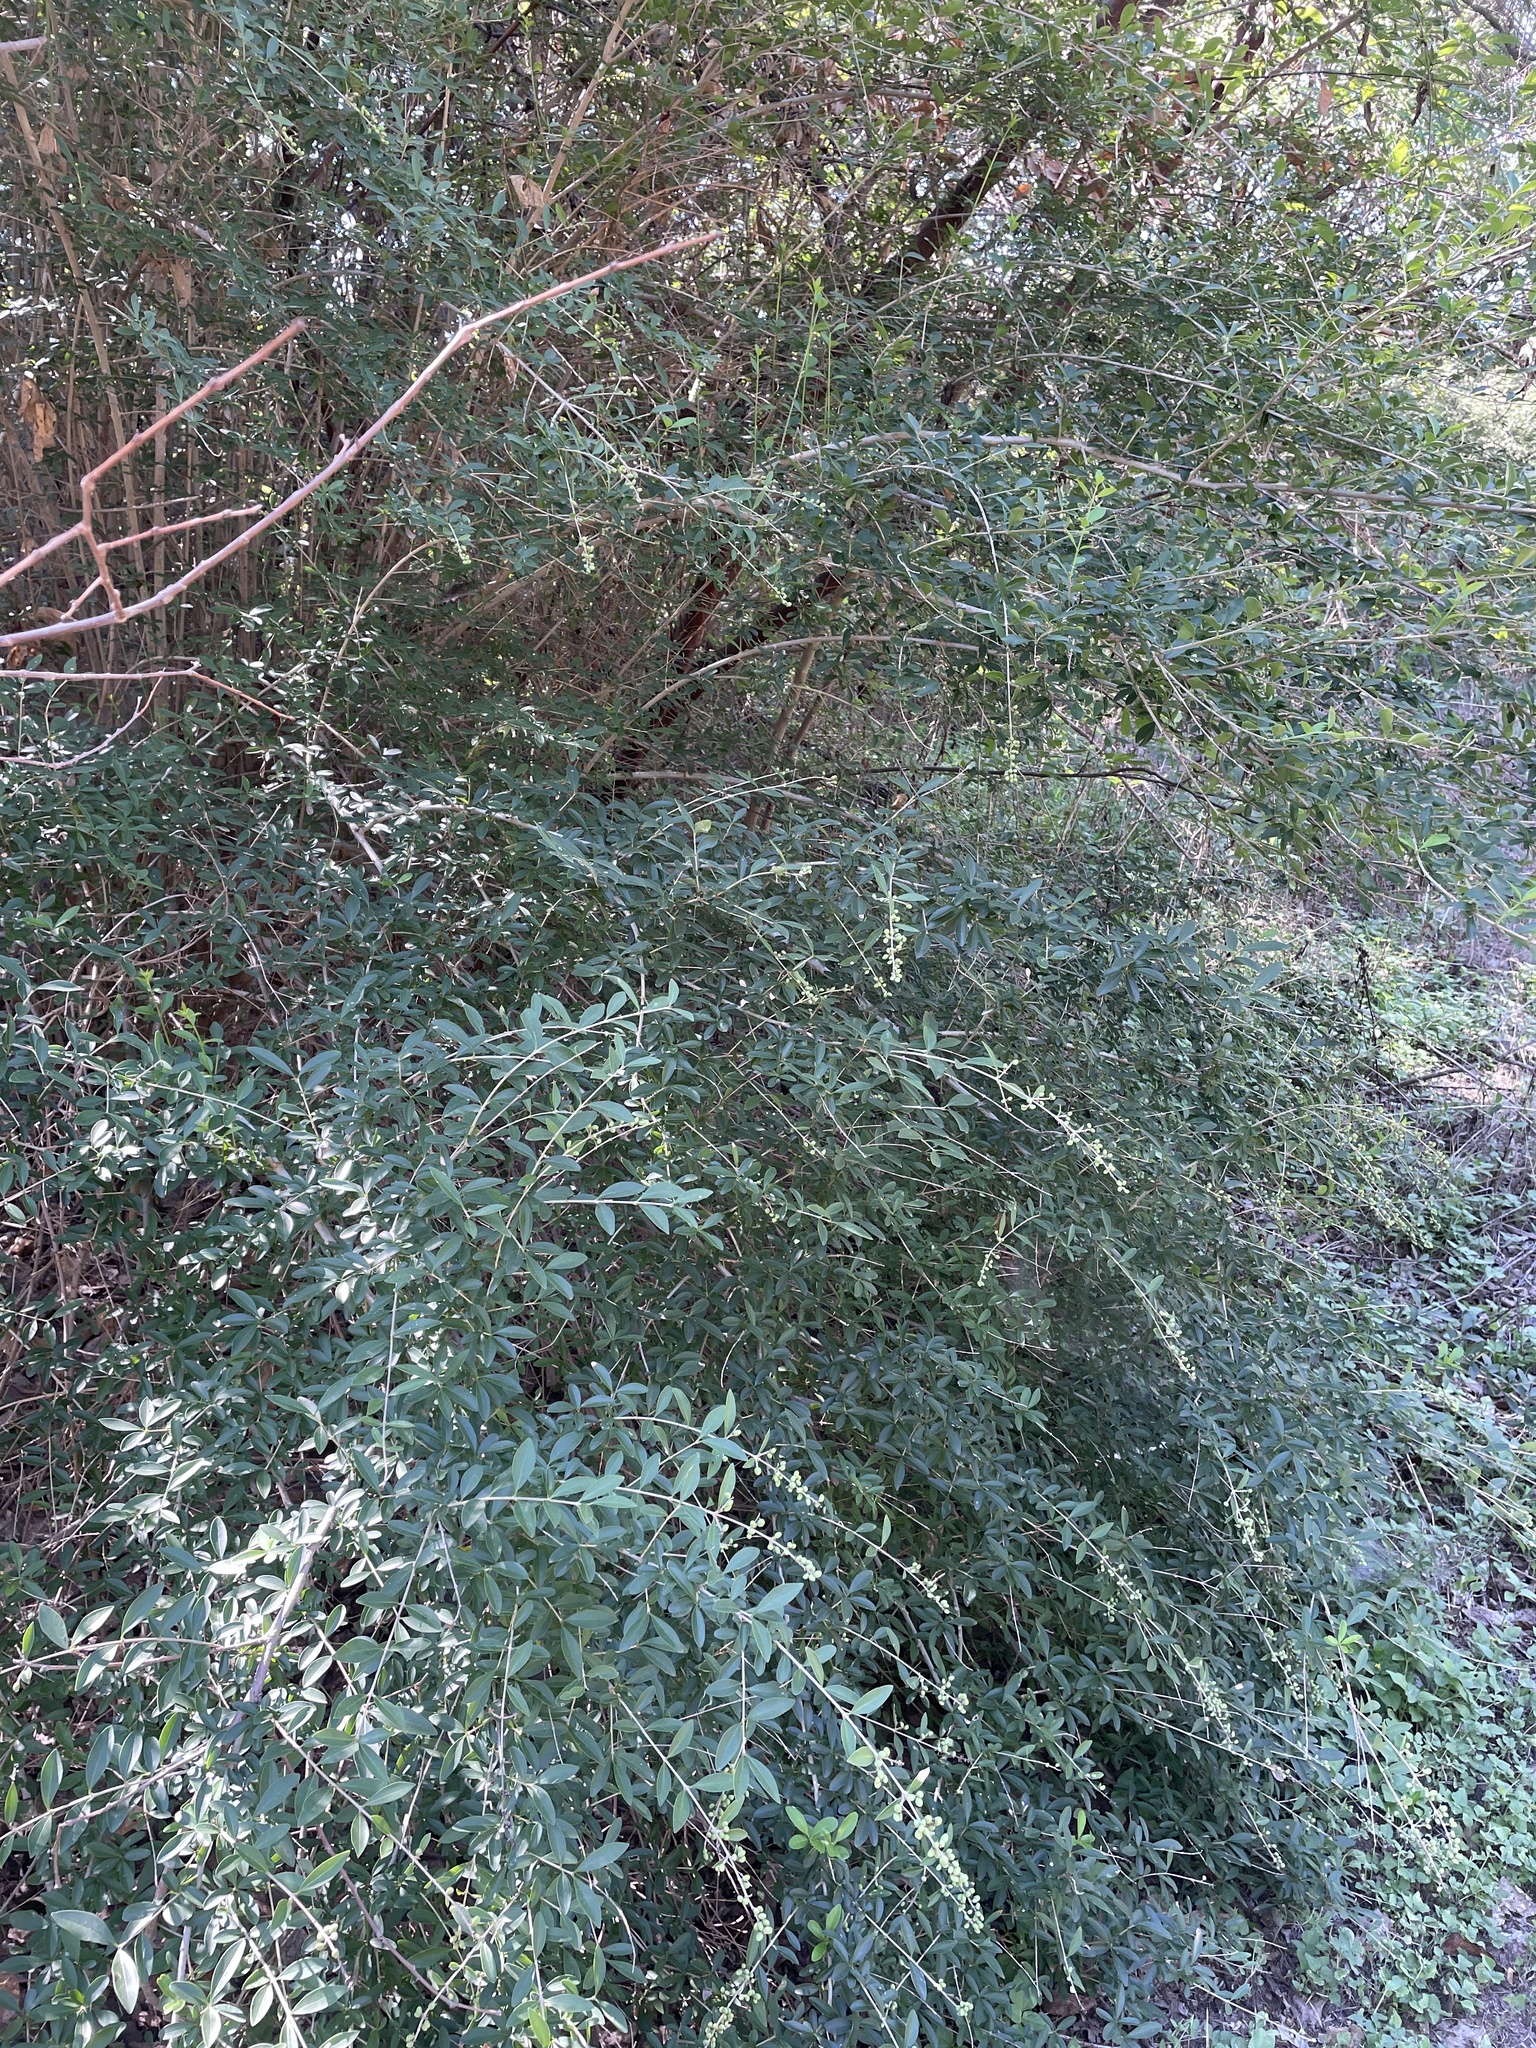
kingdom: Plantae
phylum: Tracheophyta
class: Magnoliopsida
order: Lamiales
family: Oleaceae
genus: Ligustrum
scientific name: Ligustrum quihoui
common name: Waxyleaf privet
